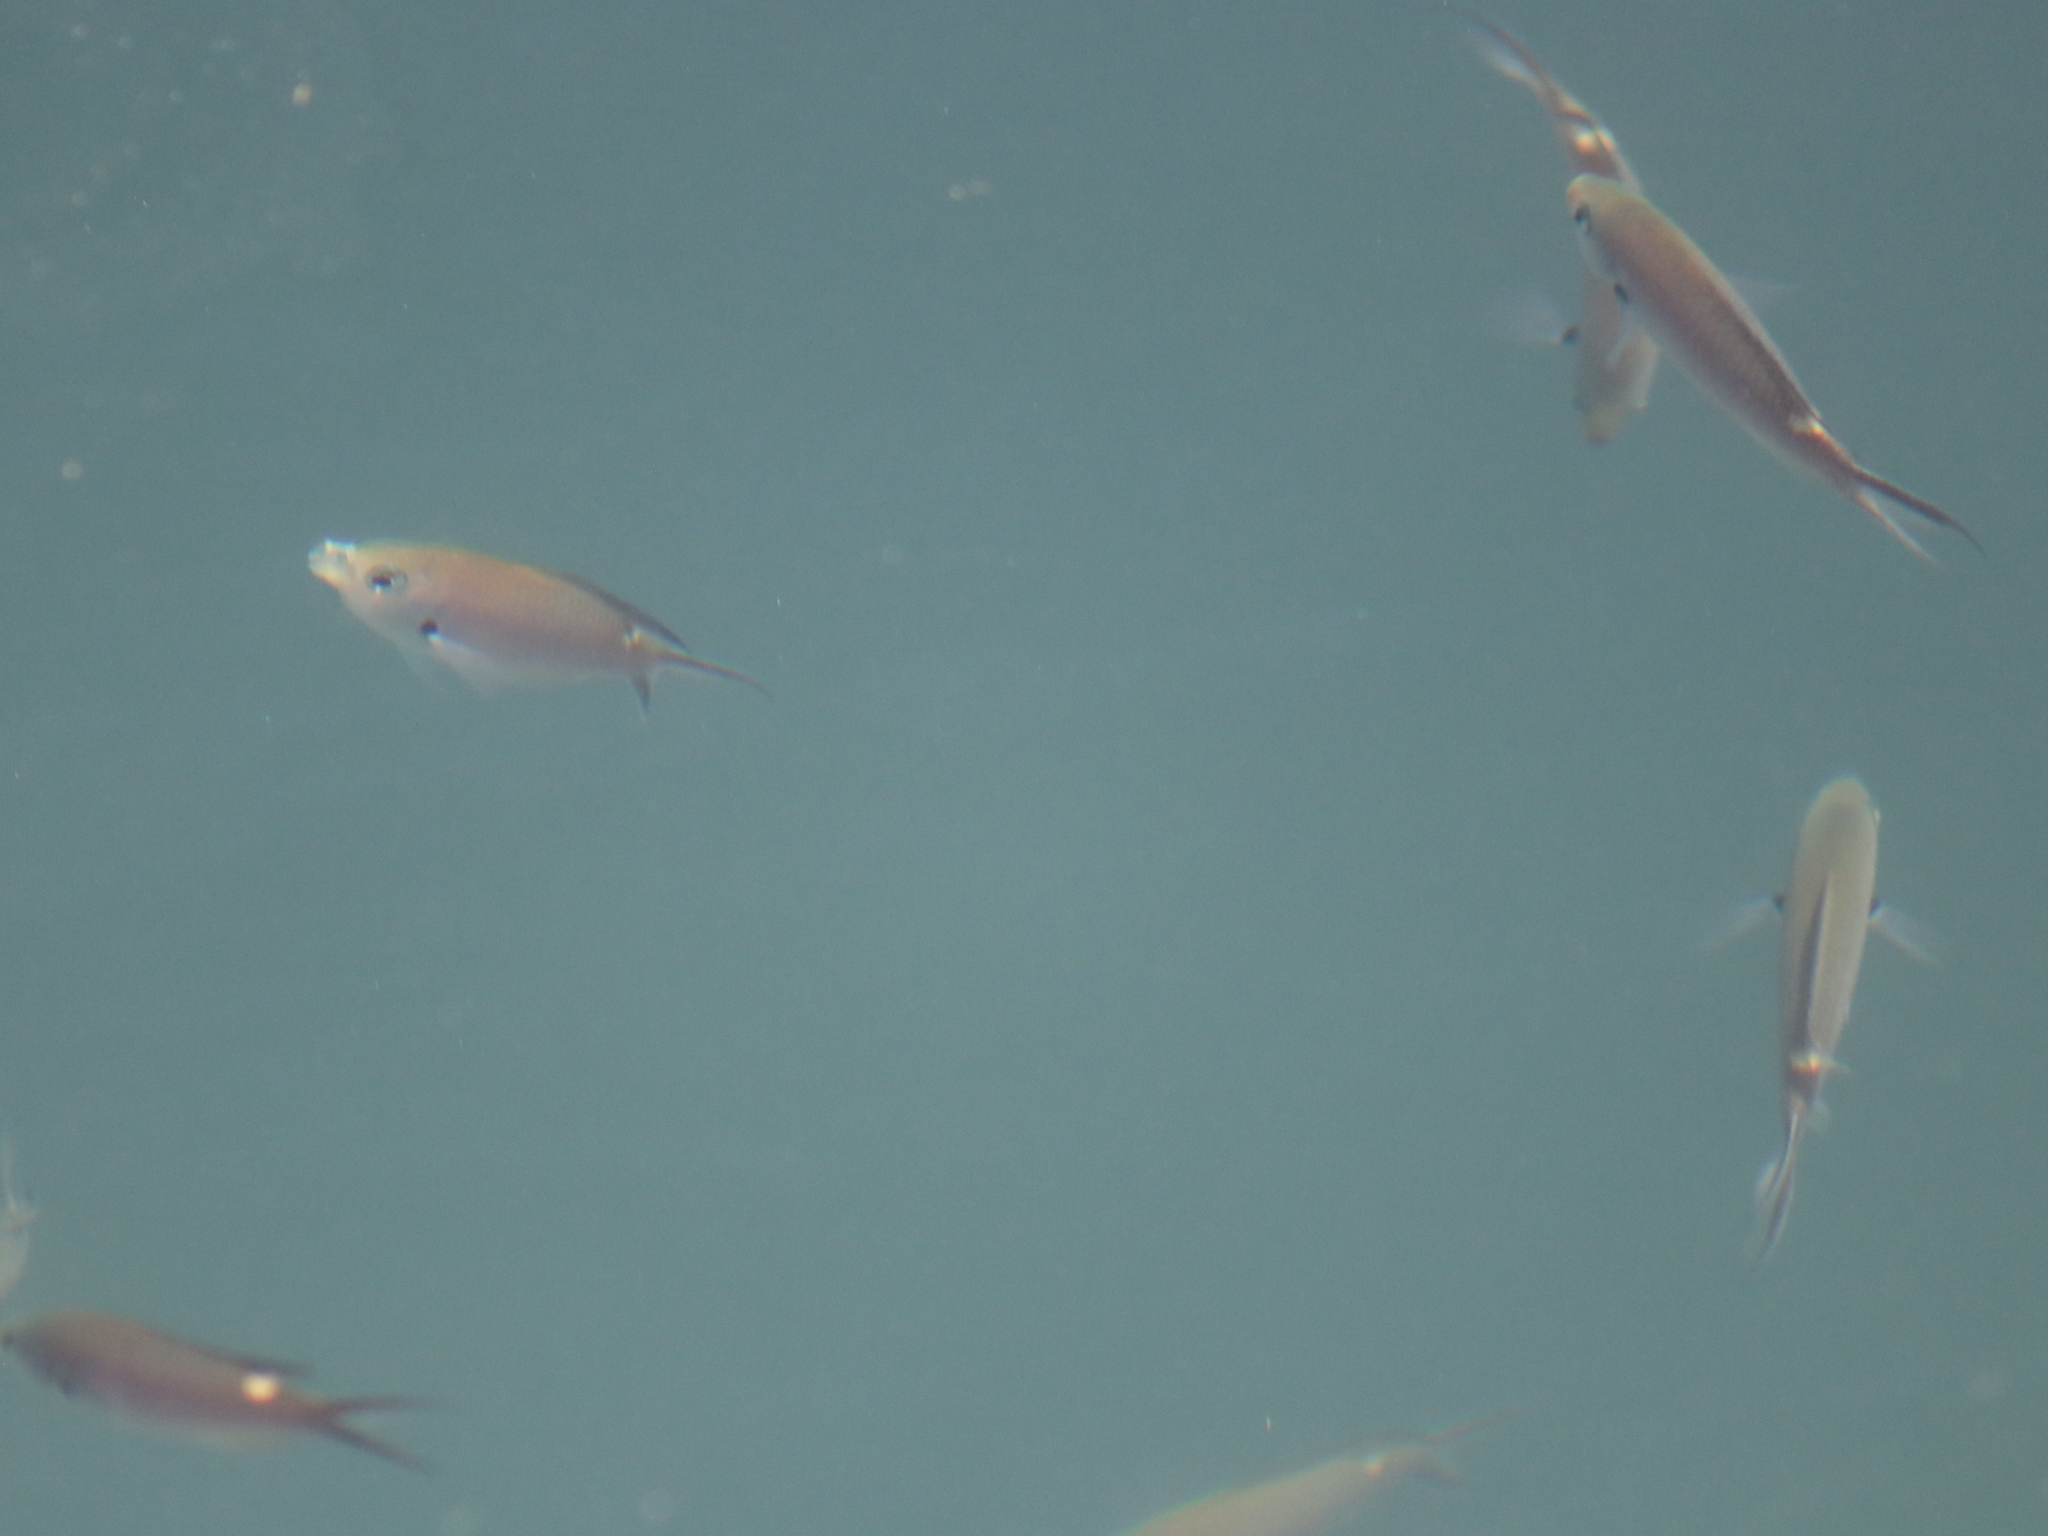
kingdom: Animalia
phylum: Chordata
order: Perciformes
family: Pomacentridae
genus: Chromis
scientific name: Chromis atrilobata
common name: Scissortail damselfish
